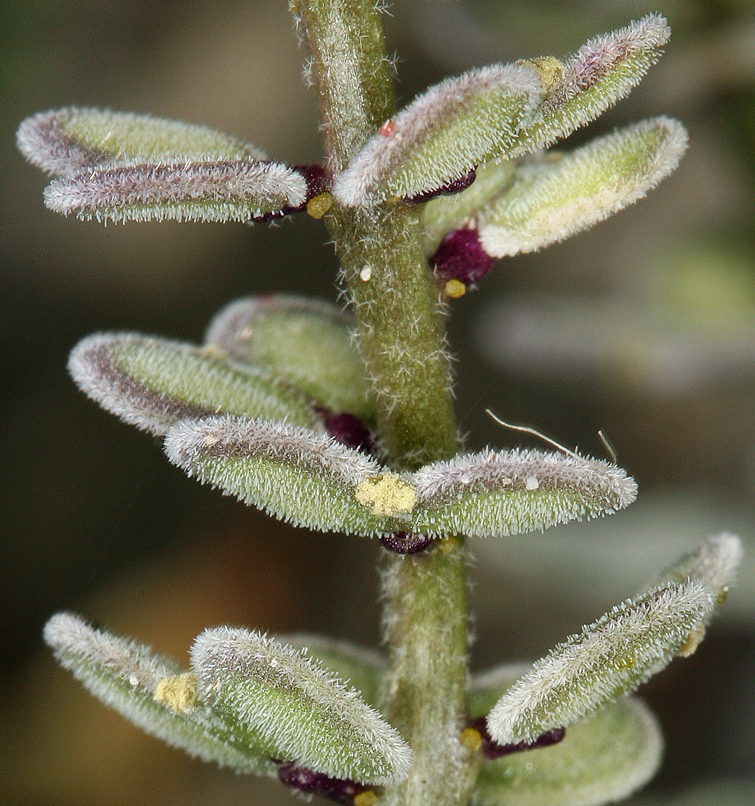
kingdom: Plantae
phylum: Tracheophyta
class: Magnoliopsida
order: Brassicales
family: Brassicaceae
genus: Dithyrea
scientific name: Dithyrea californica
